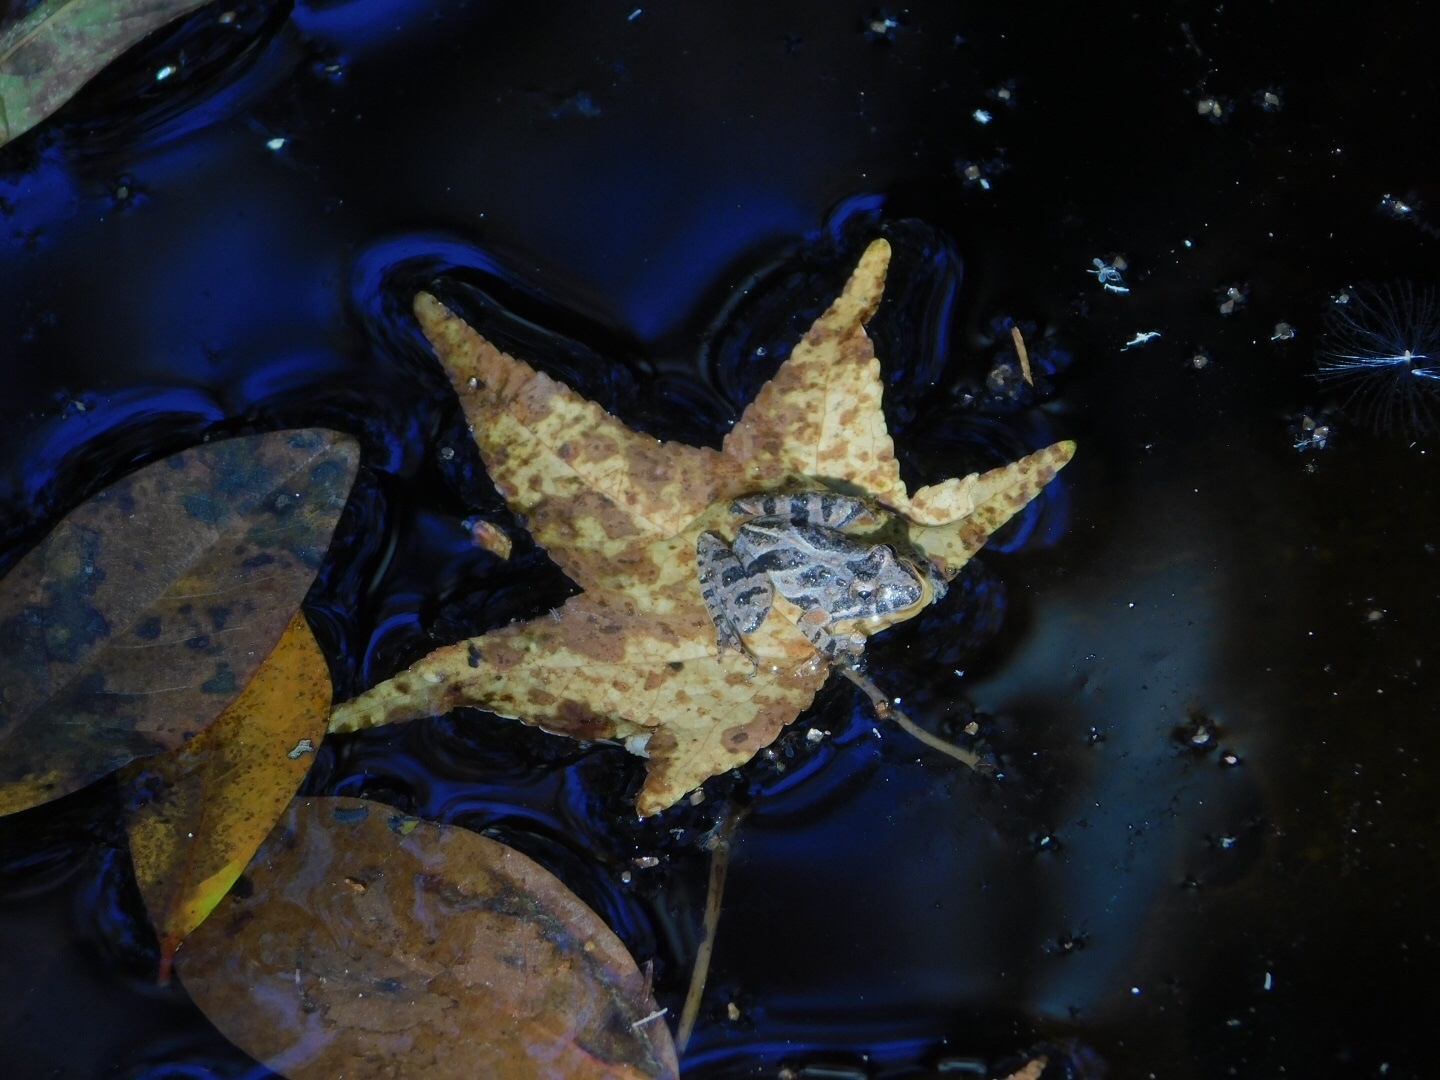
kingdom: Animalia
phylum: Chordata
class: Amphibia
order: Anura
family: Hylidae
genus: Acris
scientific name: Acris gryllus
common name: Southern cricket frog
